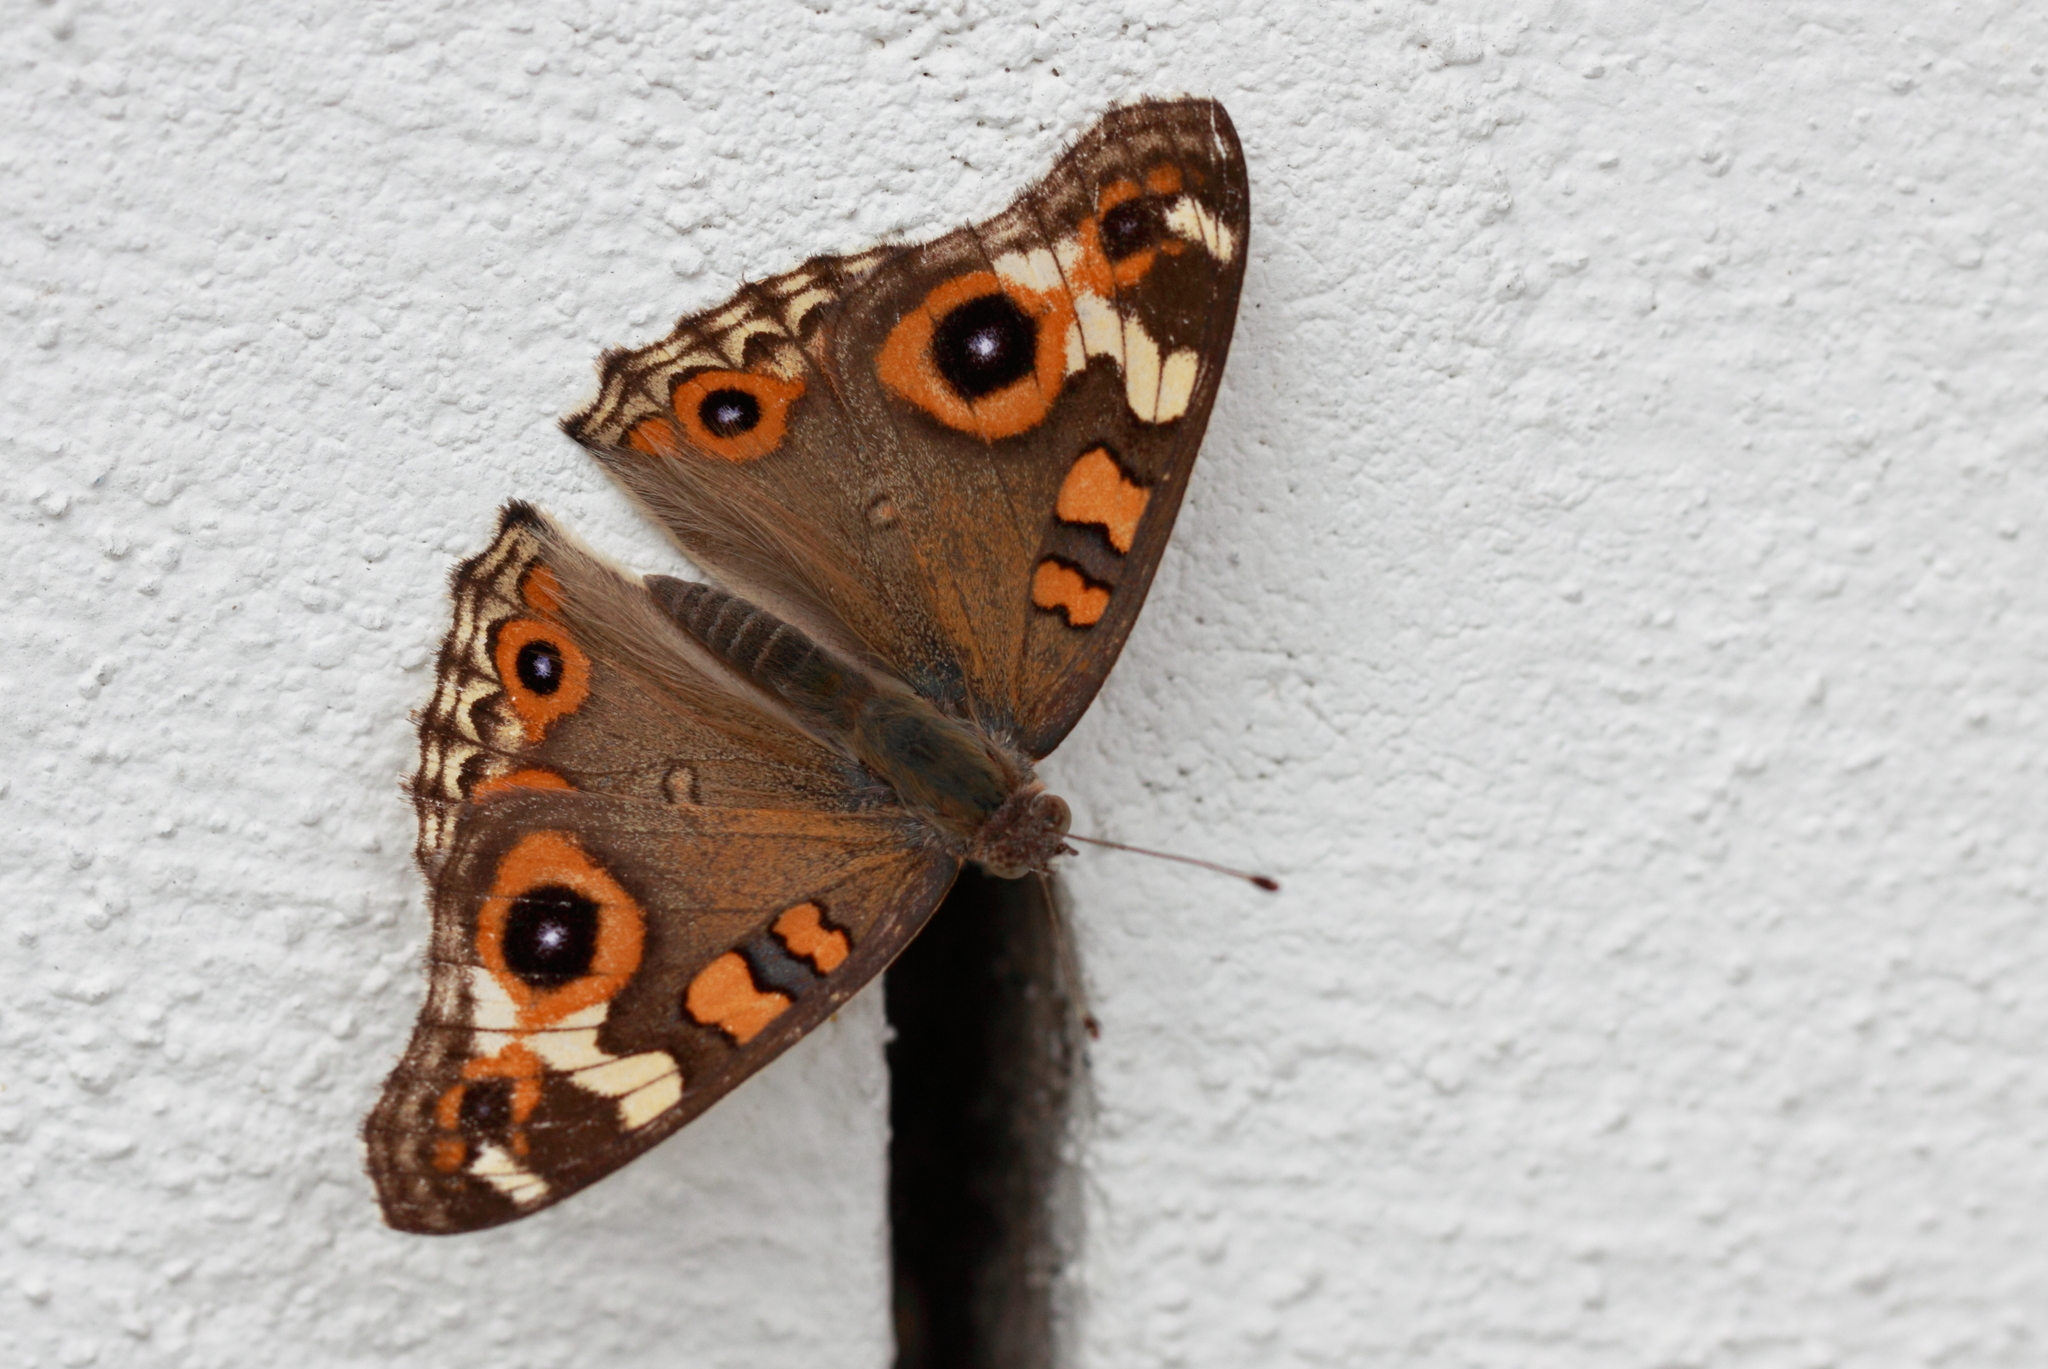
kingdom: Animalia
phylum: Arthropoda
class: Insecta
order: Lepidoptera
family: Nymphalidae
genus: Junonia
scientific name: Junonia villida
